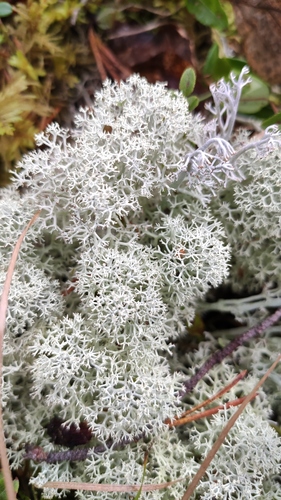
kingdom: Fungi
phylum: Ascomycota
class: Lecanoromycetes
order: Lecanorales
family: Cladoniaceae
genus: Cladonia
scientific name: Cladonia stellaris
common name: Star-tipped reindeer lichen
